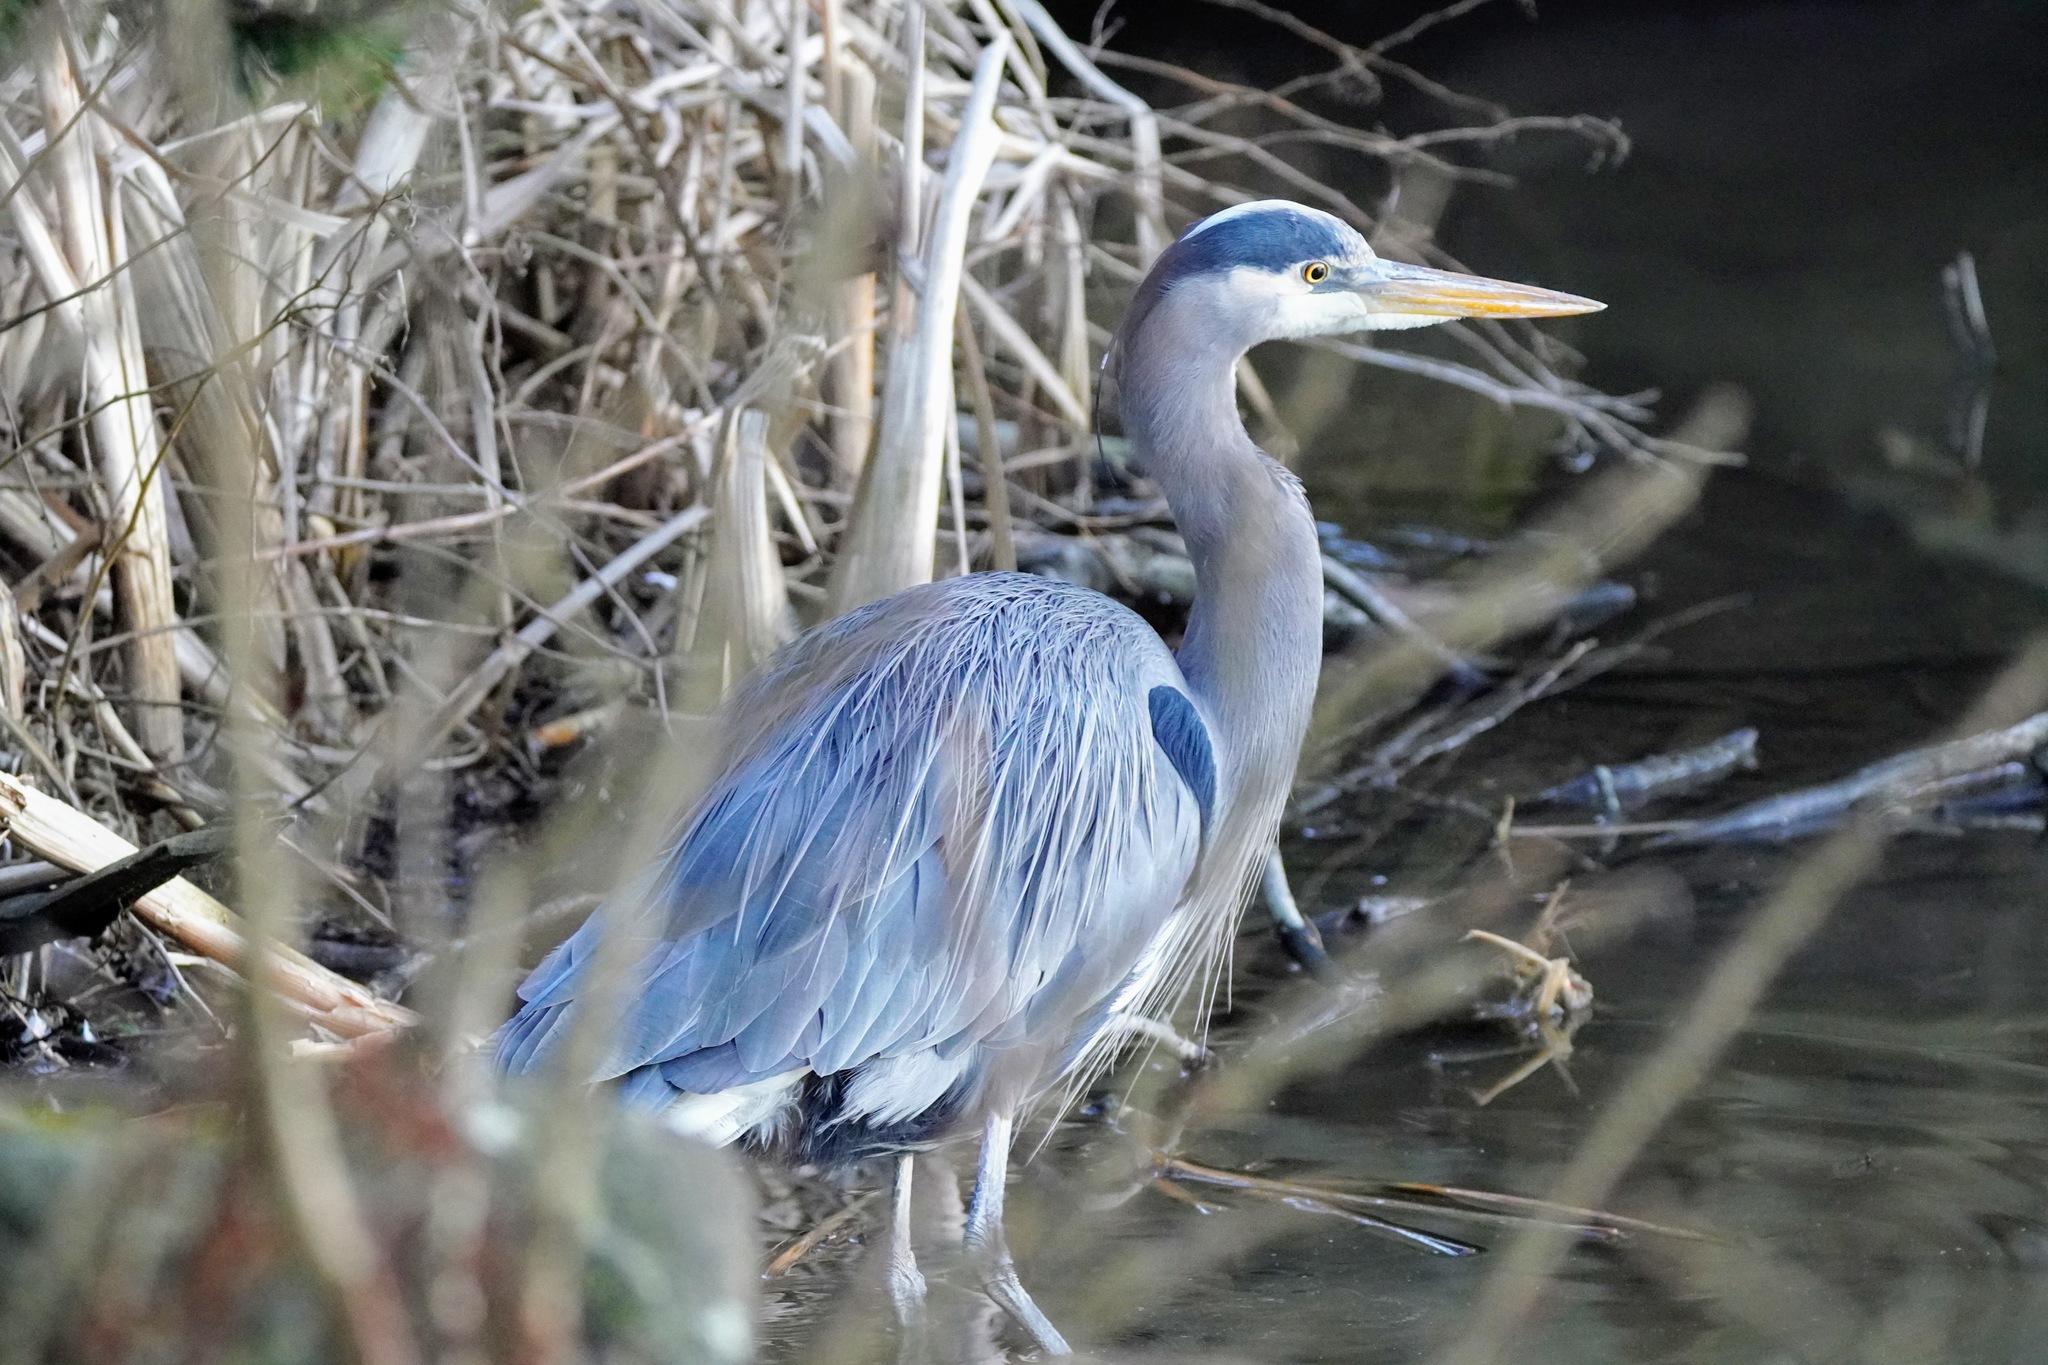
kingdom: Animalia
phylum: Chordata
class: Aves
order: Pelecaniformes
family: Ardeidae
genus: Ardea
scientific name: Ardea herodias
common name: Great blue heron
